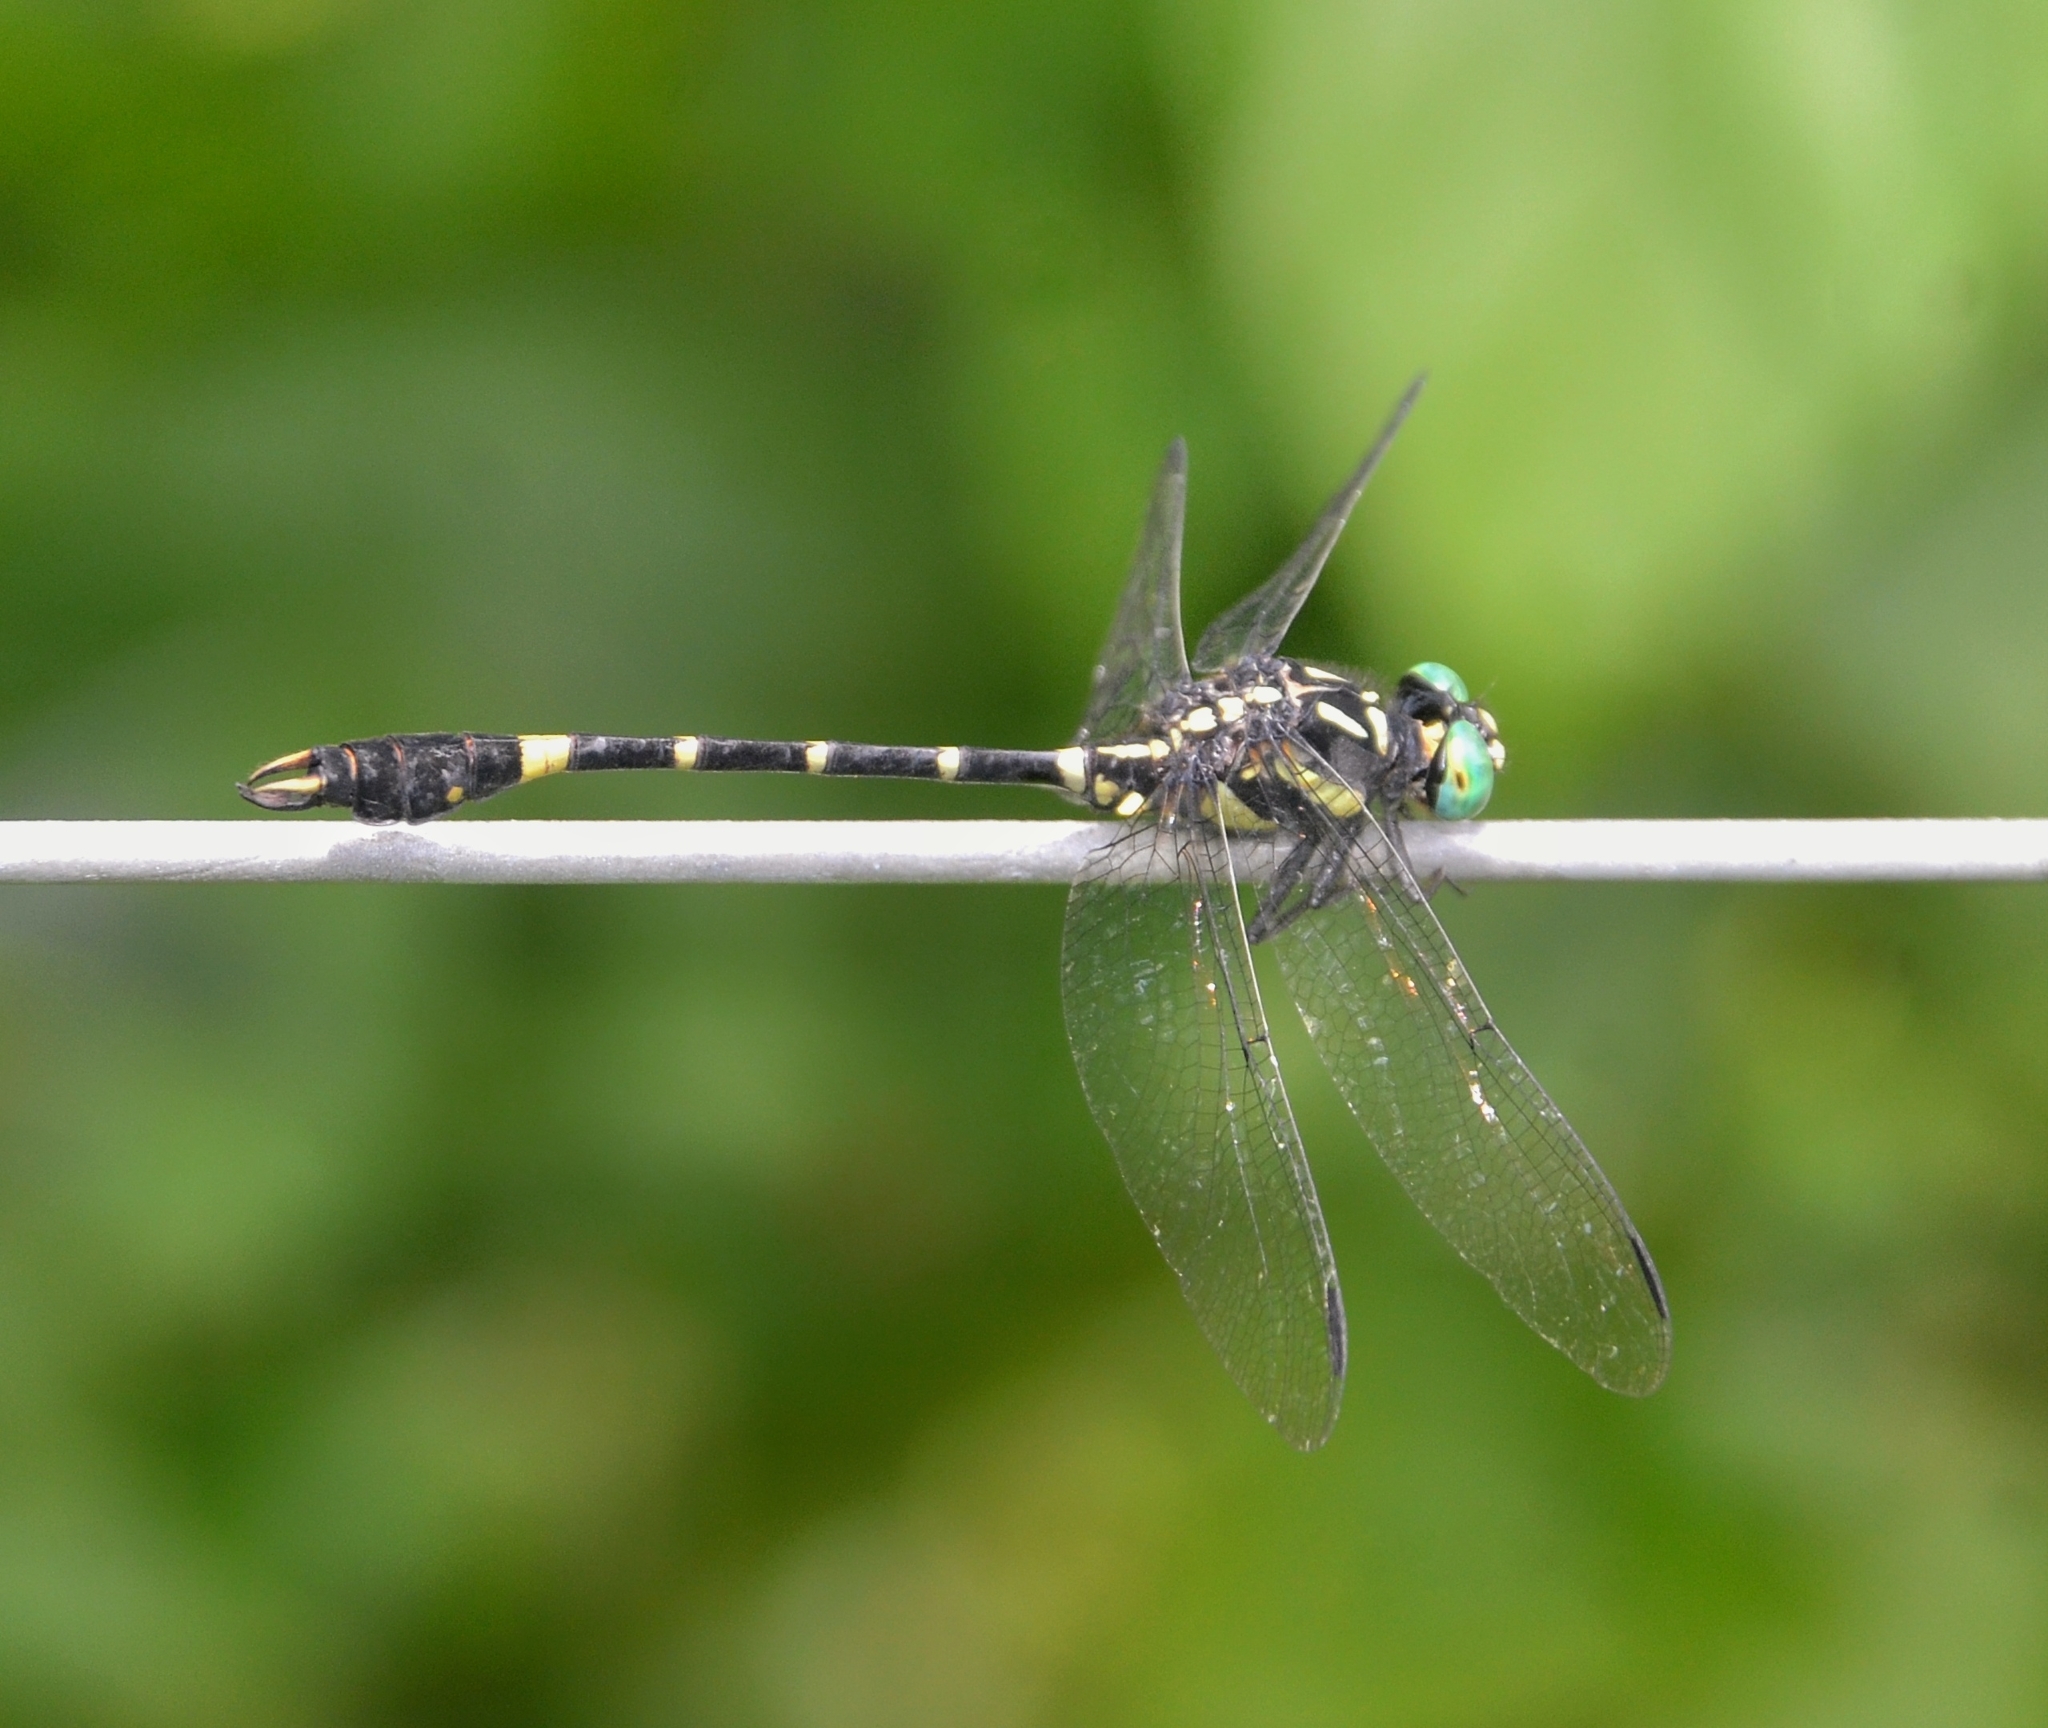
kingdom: Animalia
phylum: Arthropoda
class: Insecta
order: Odonata
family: Gomphidae
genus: Melligomphus
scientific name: Melligomphus acinaces
